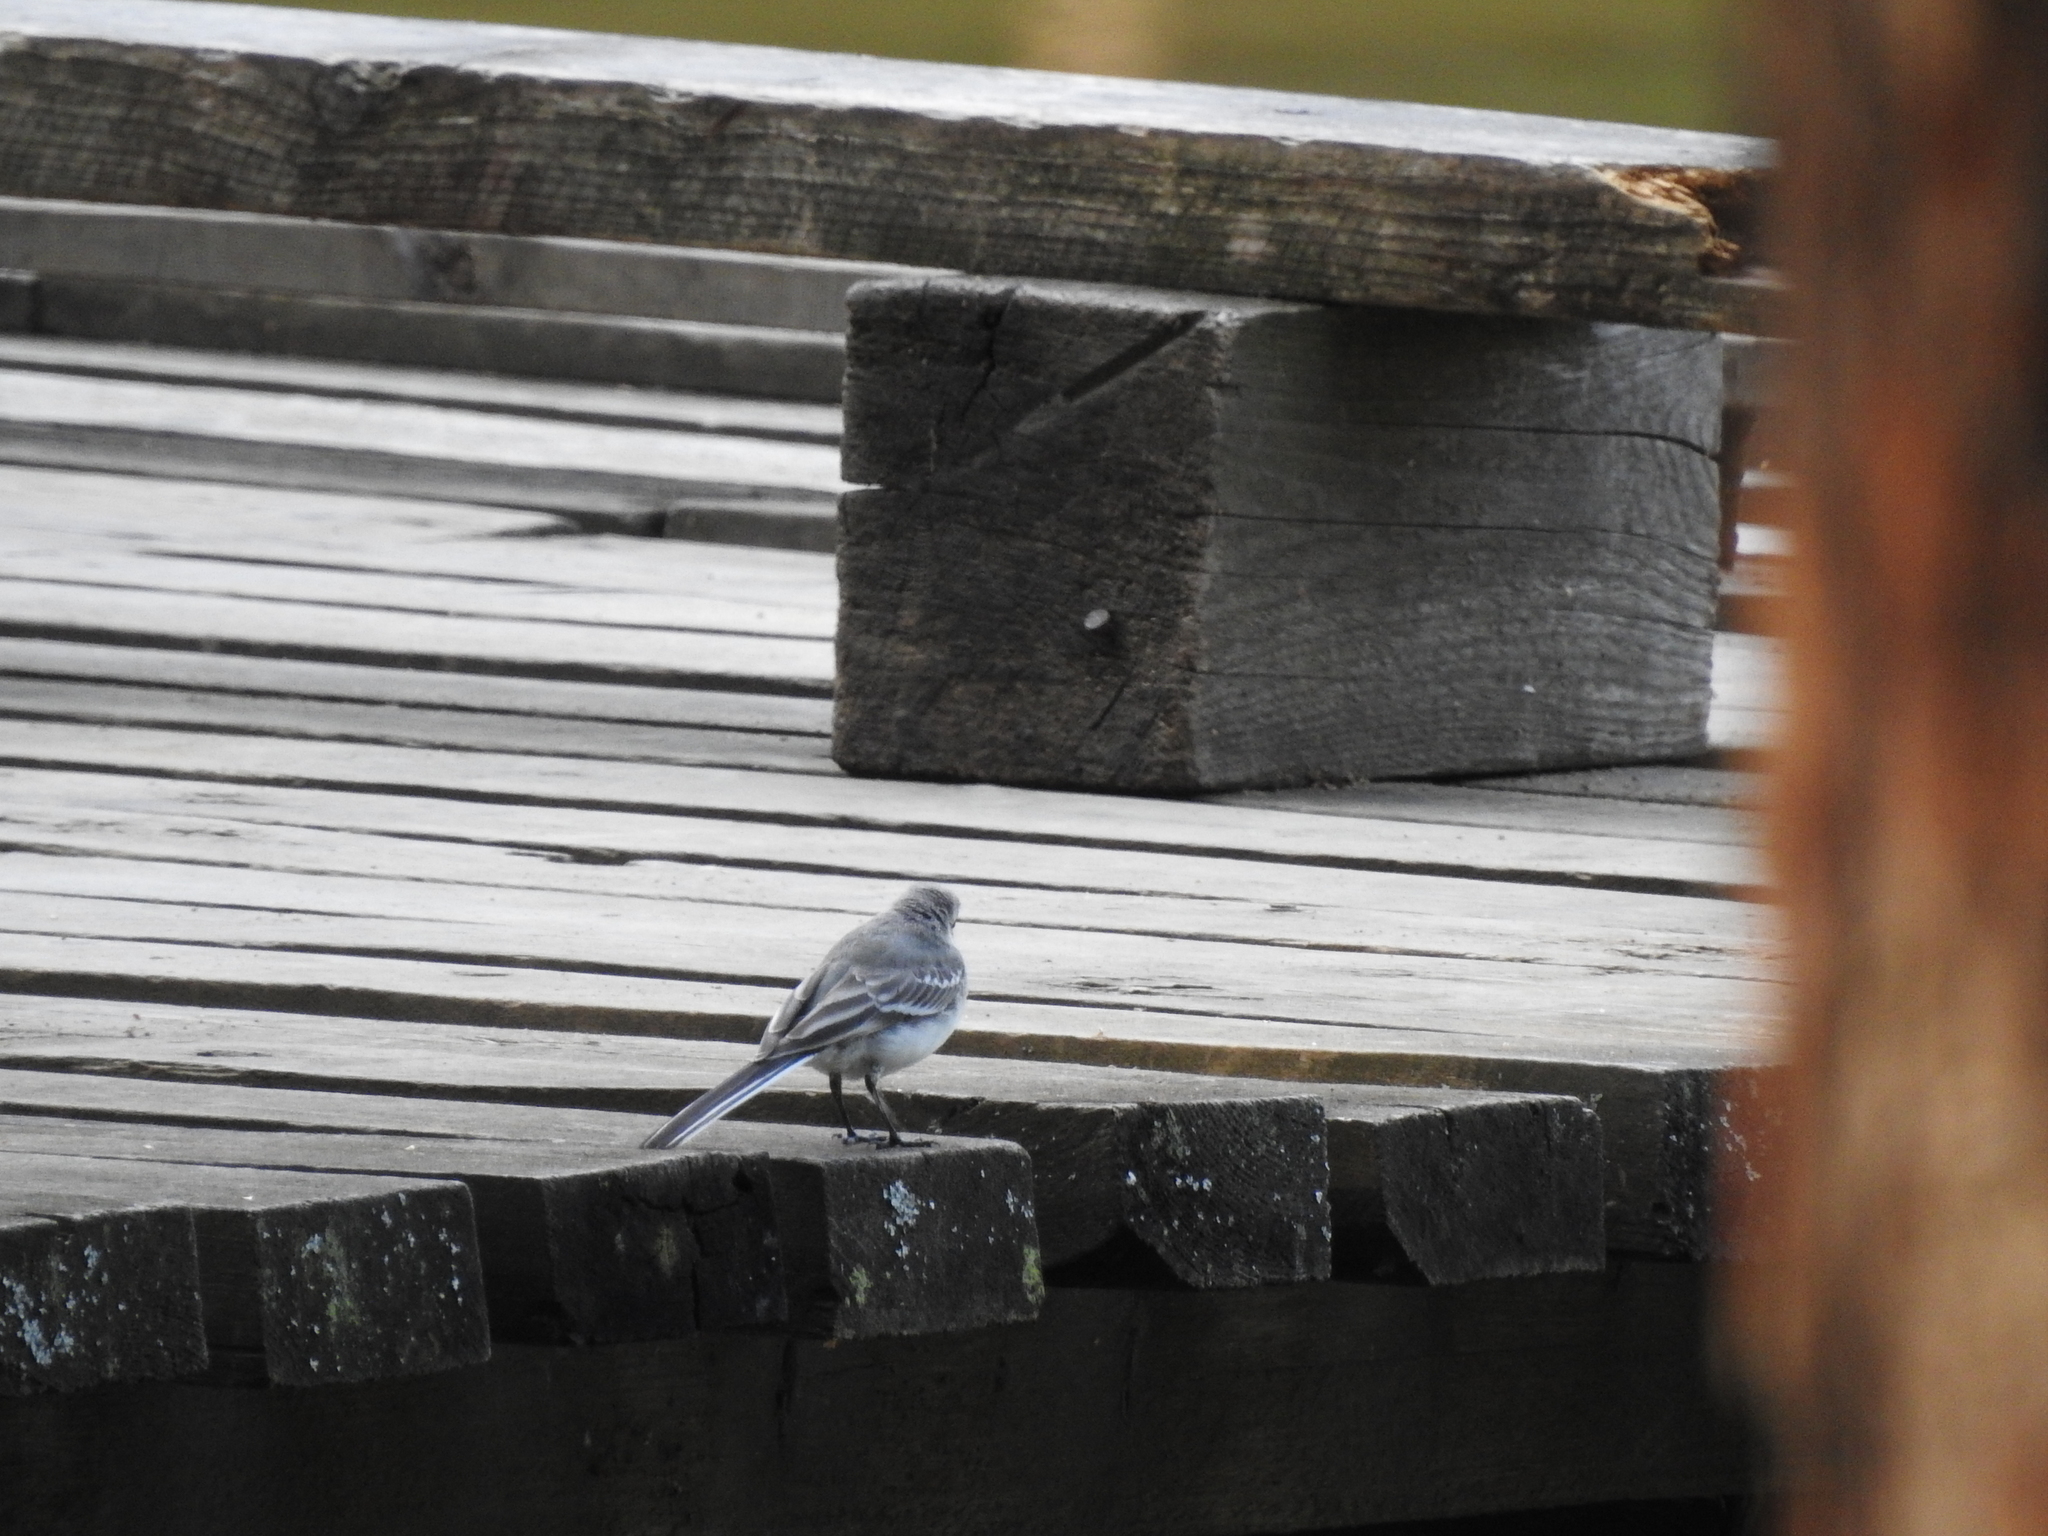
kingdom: Animalia
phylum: Chordata
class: Aves
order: Passeriformes
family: Motacillidae
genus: Motacilla
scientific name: Motacilla alba
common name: White wagtail
